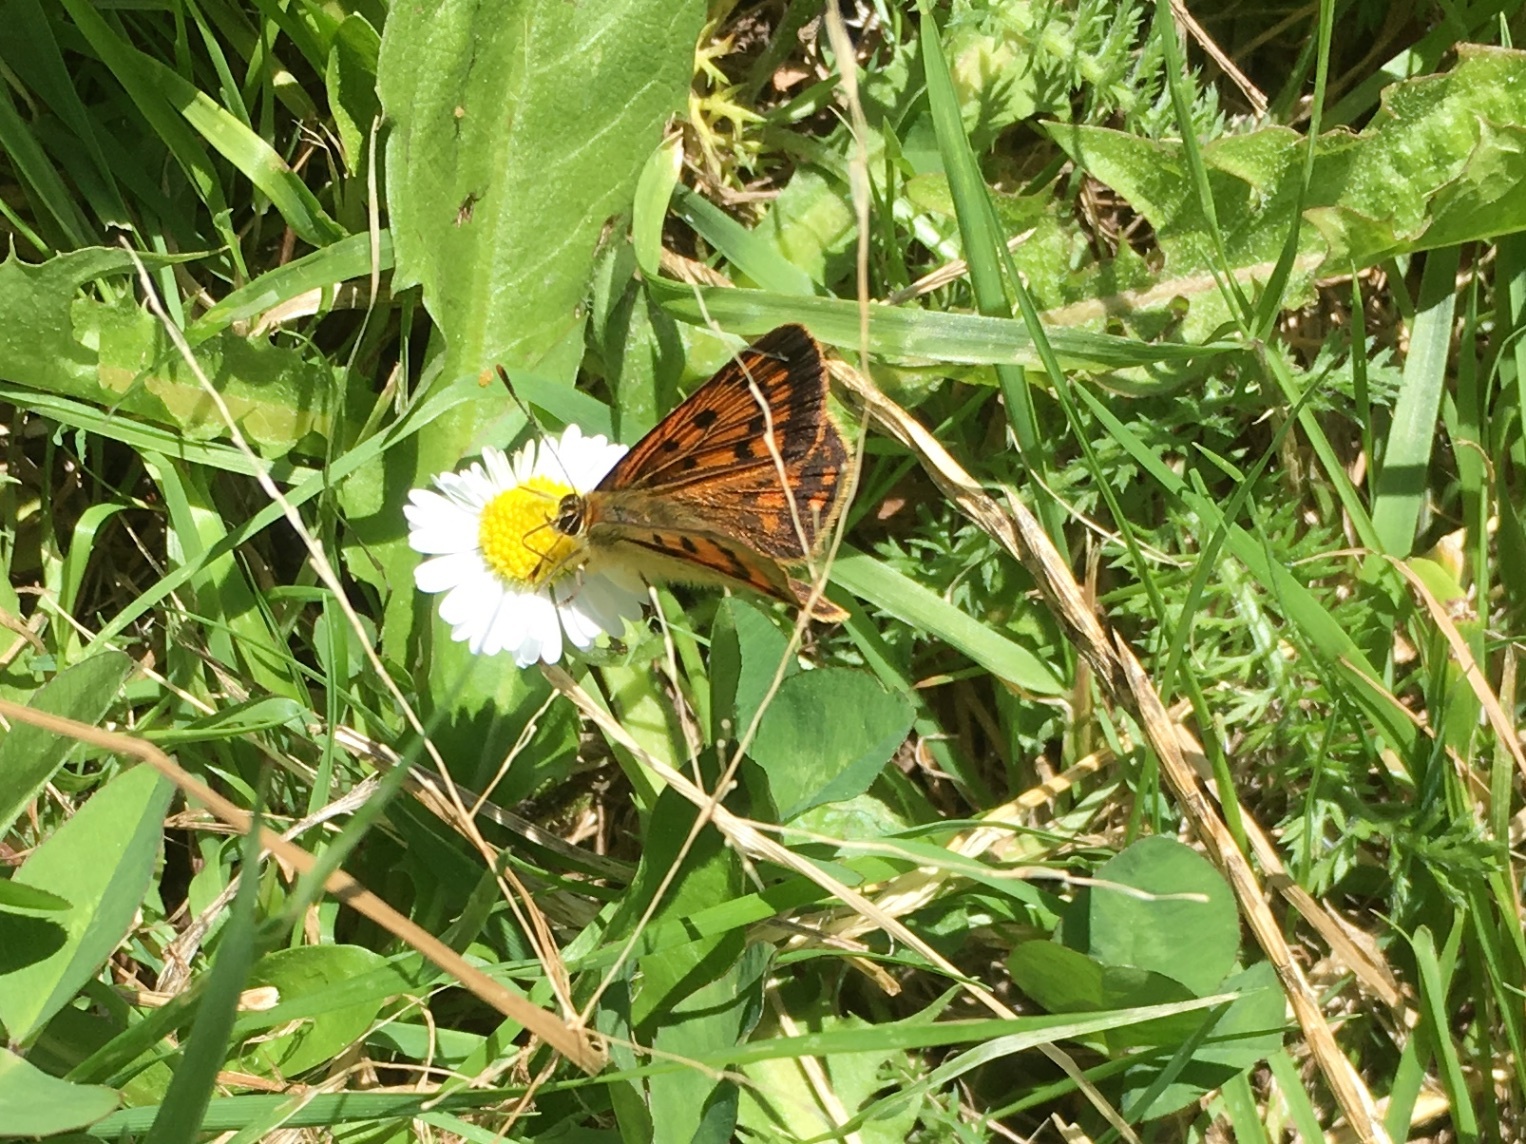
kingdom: Animalia
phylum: Arthropoda
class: Insecta
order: Lepidoptera
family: Lycaenidae
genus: Lycaena
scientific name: Lycaena
